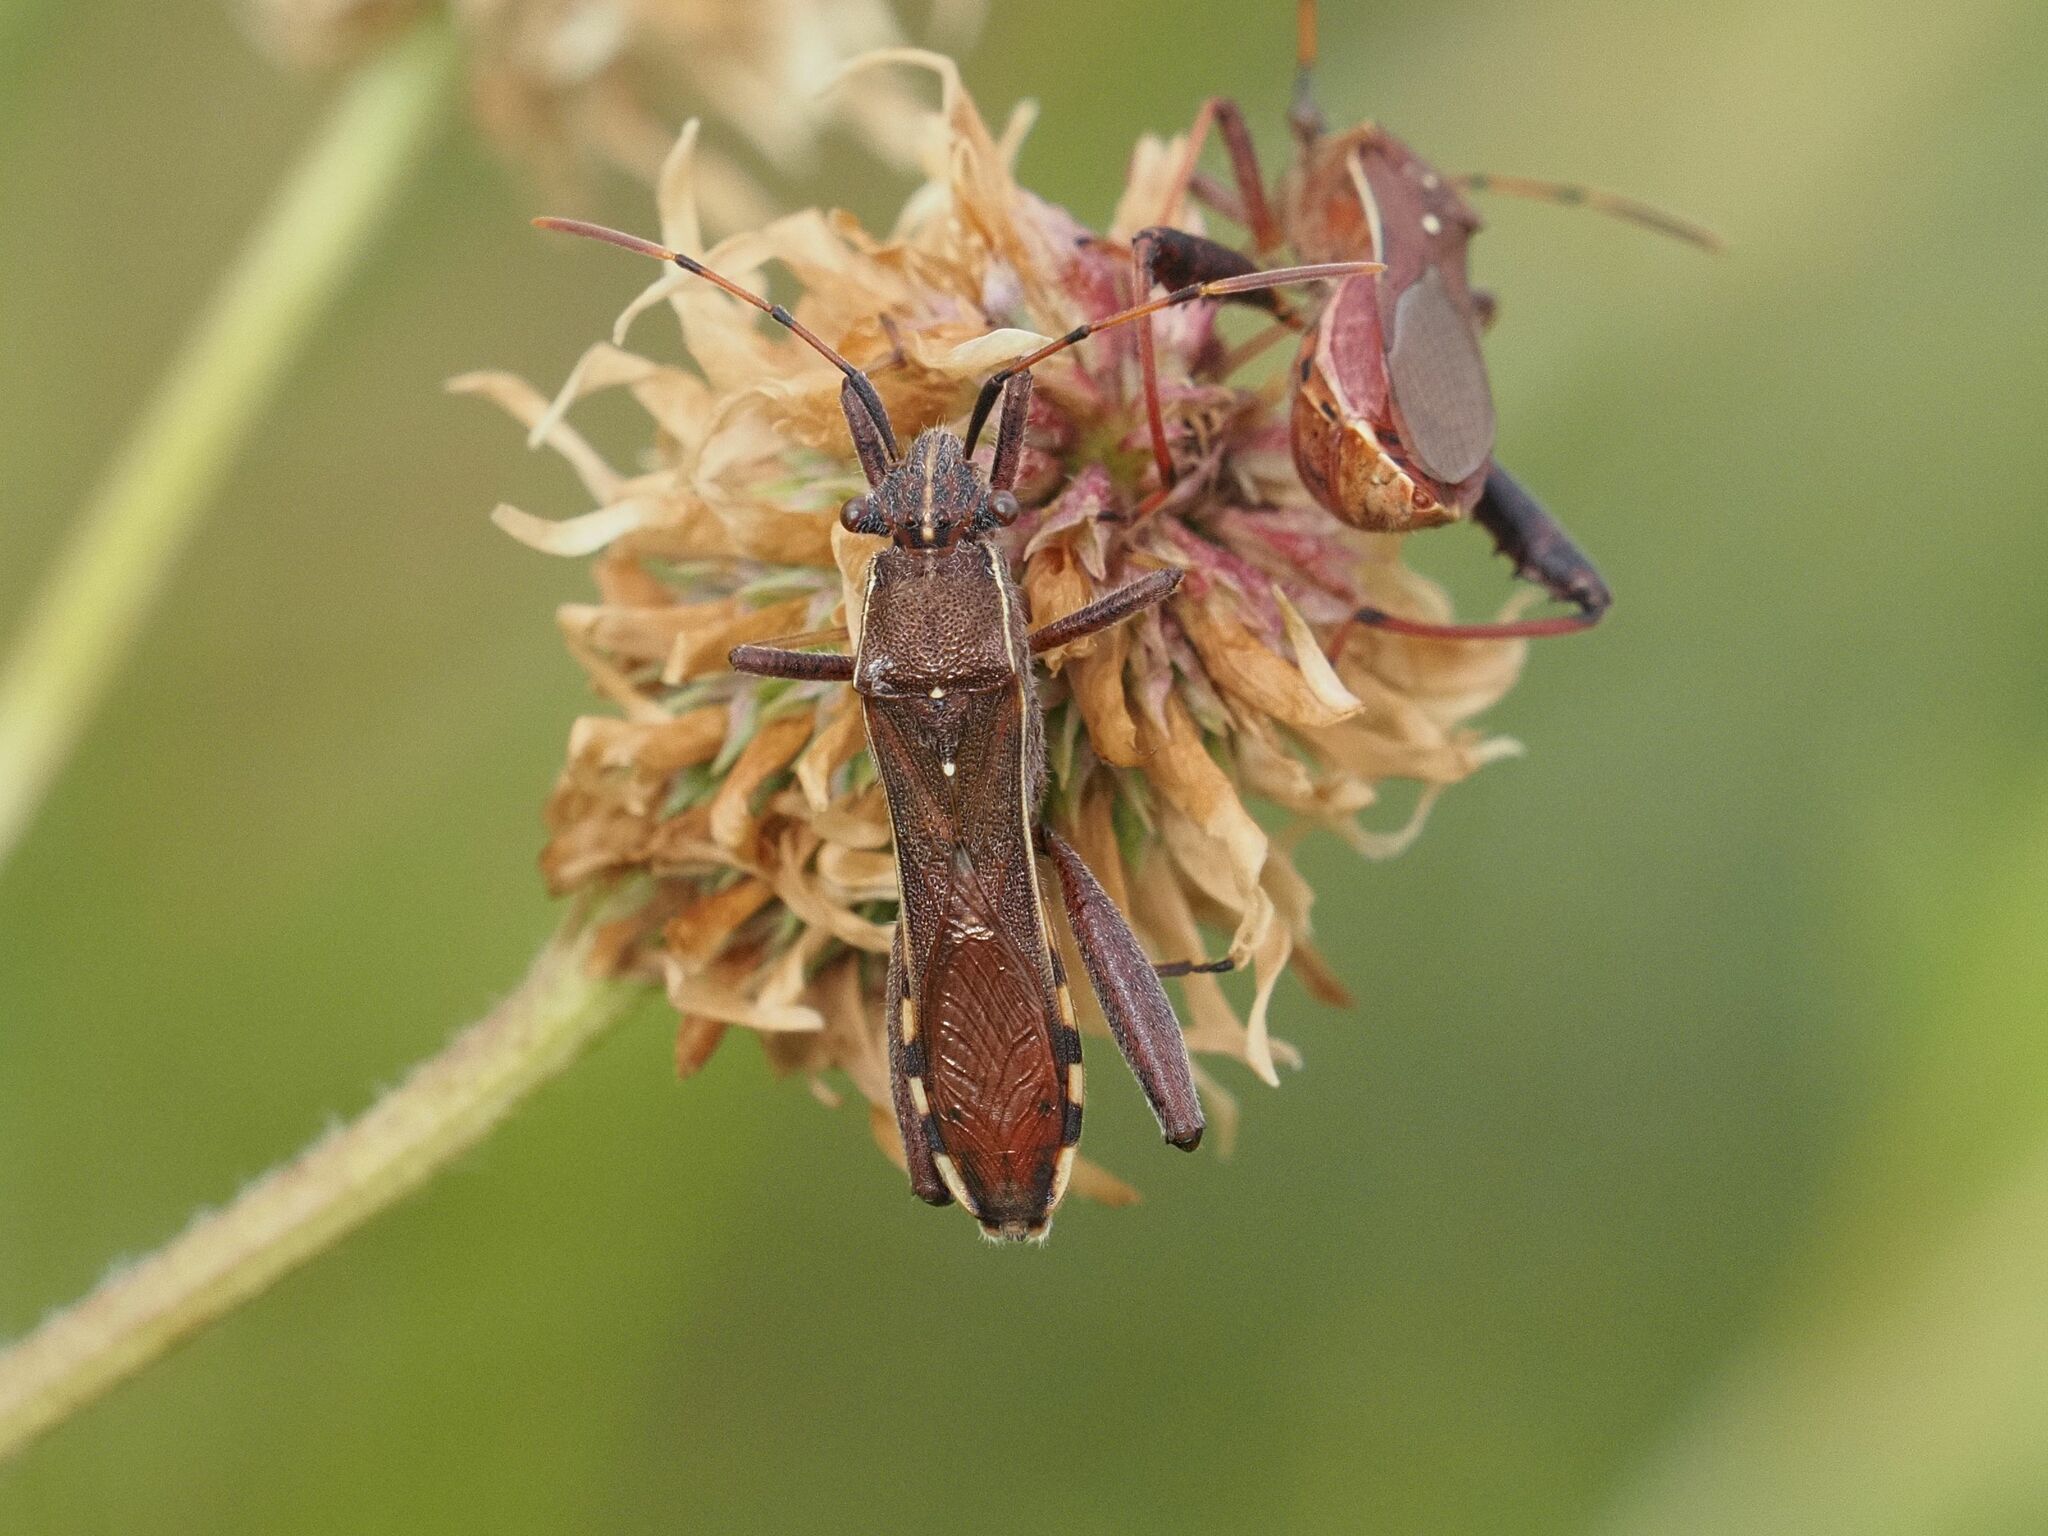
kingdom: Animalia
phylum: Arthropoda
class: Insecta
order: Hemiptera
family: Alydidae
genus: Camptopus
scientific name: Camptopus lateralis
